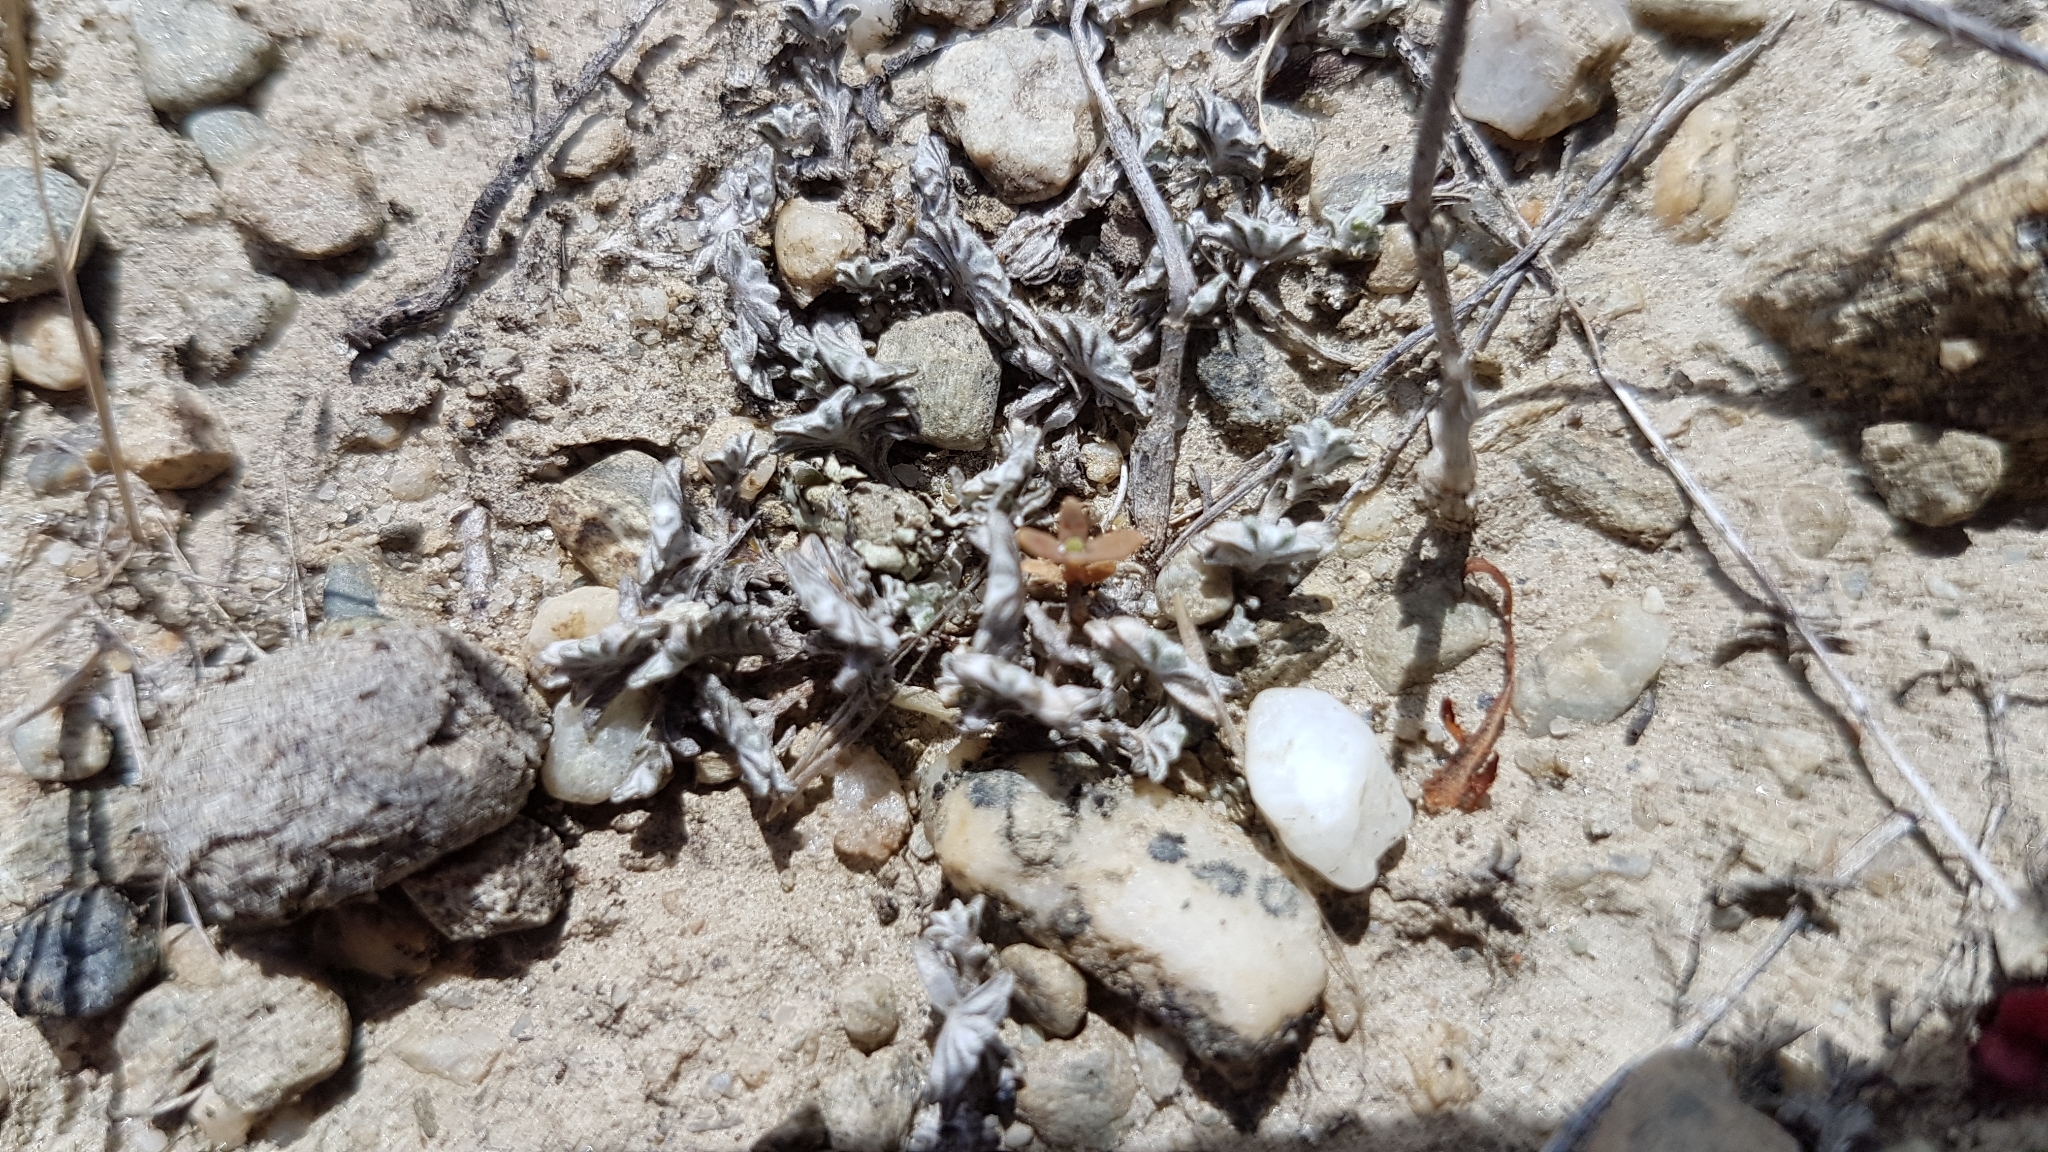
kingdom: Plantae
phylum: Tracheophyta
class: Magnoliopsida
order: Asterales
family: Asteraceae
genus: Raoulia
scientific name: Raoulia monroi
